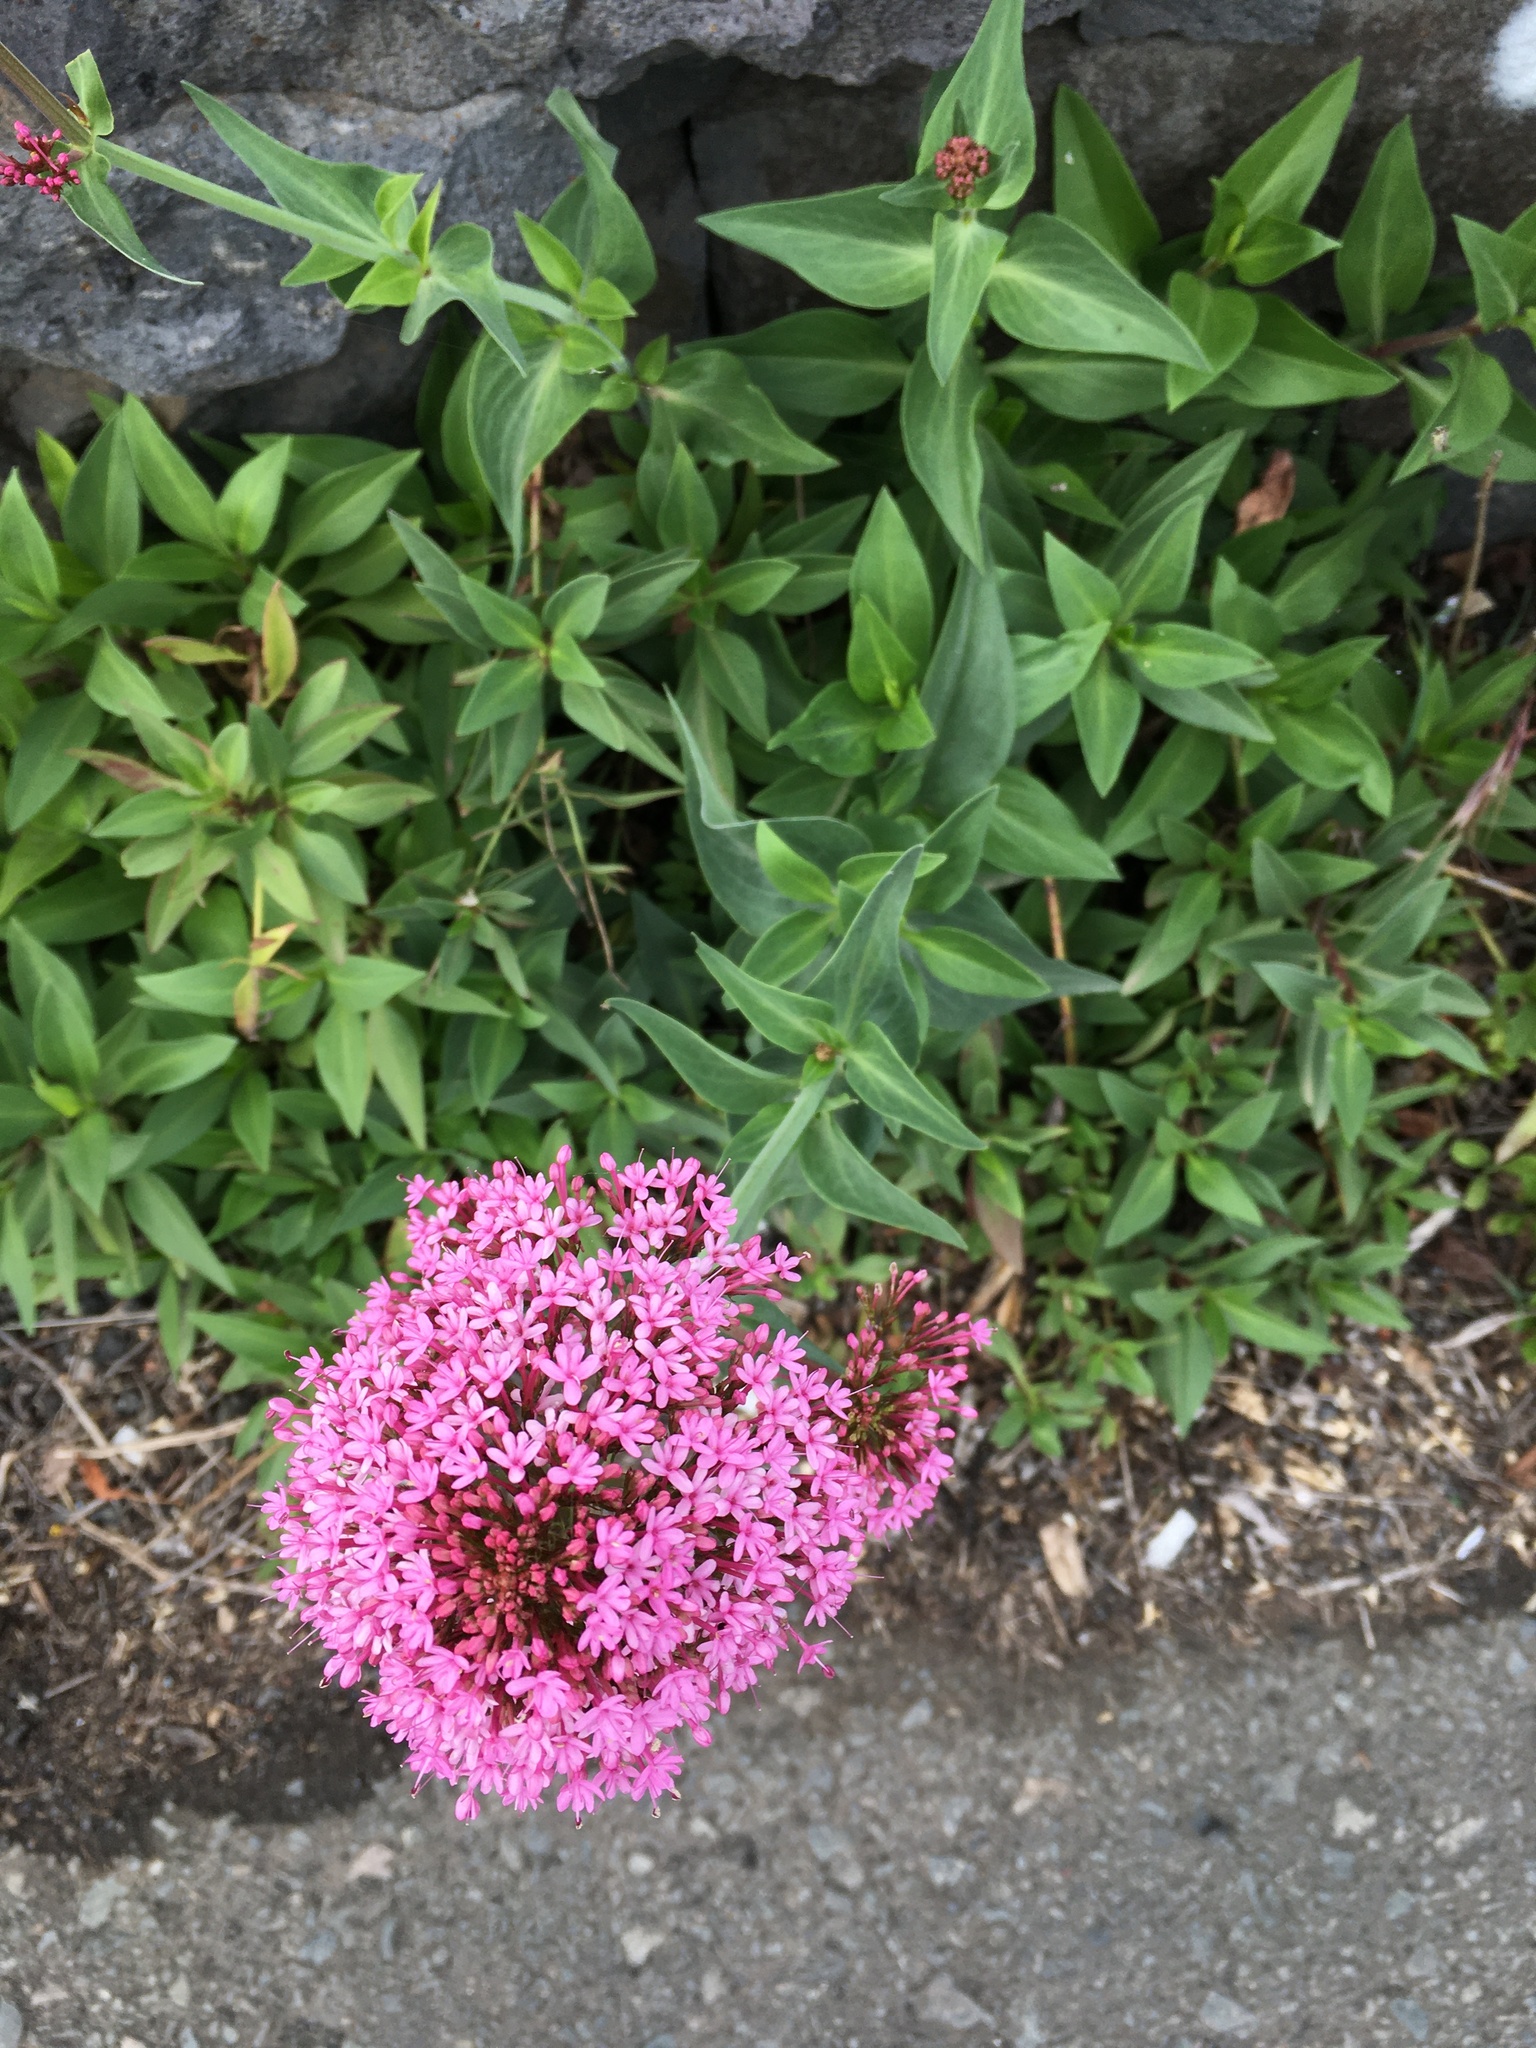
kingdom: Plantae
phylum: Tracheophyta
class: Magnoliopsida
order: Dipsacales
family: Caprifoliaceae
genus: Centranthus
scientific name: Centranthus ruber
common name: Red valerian
